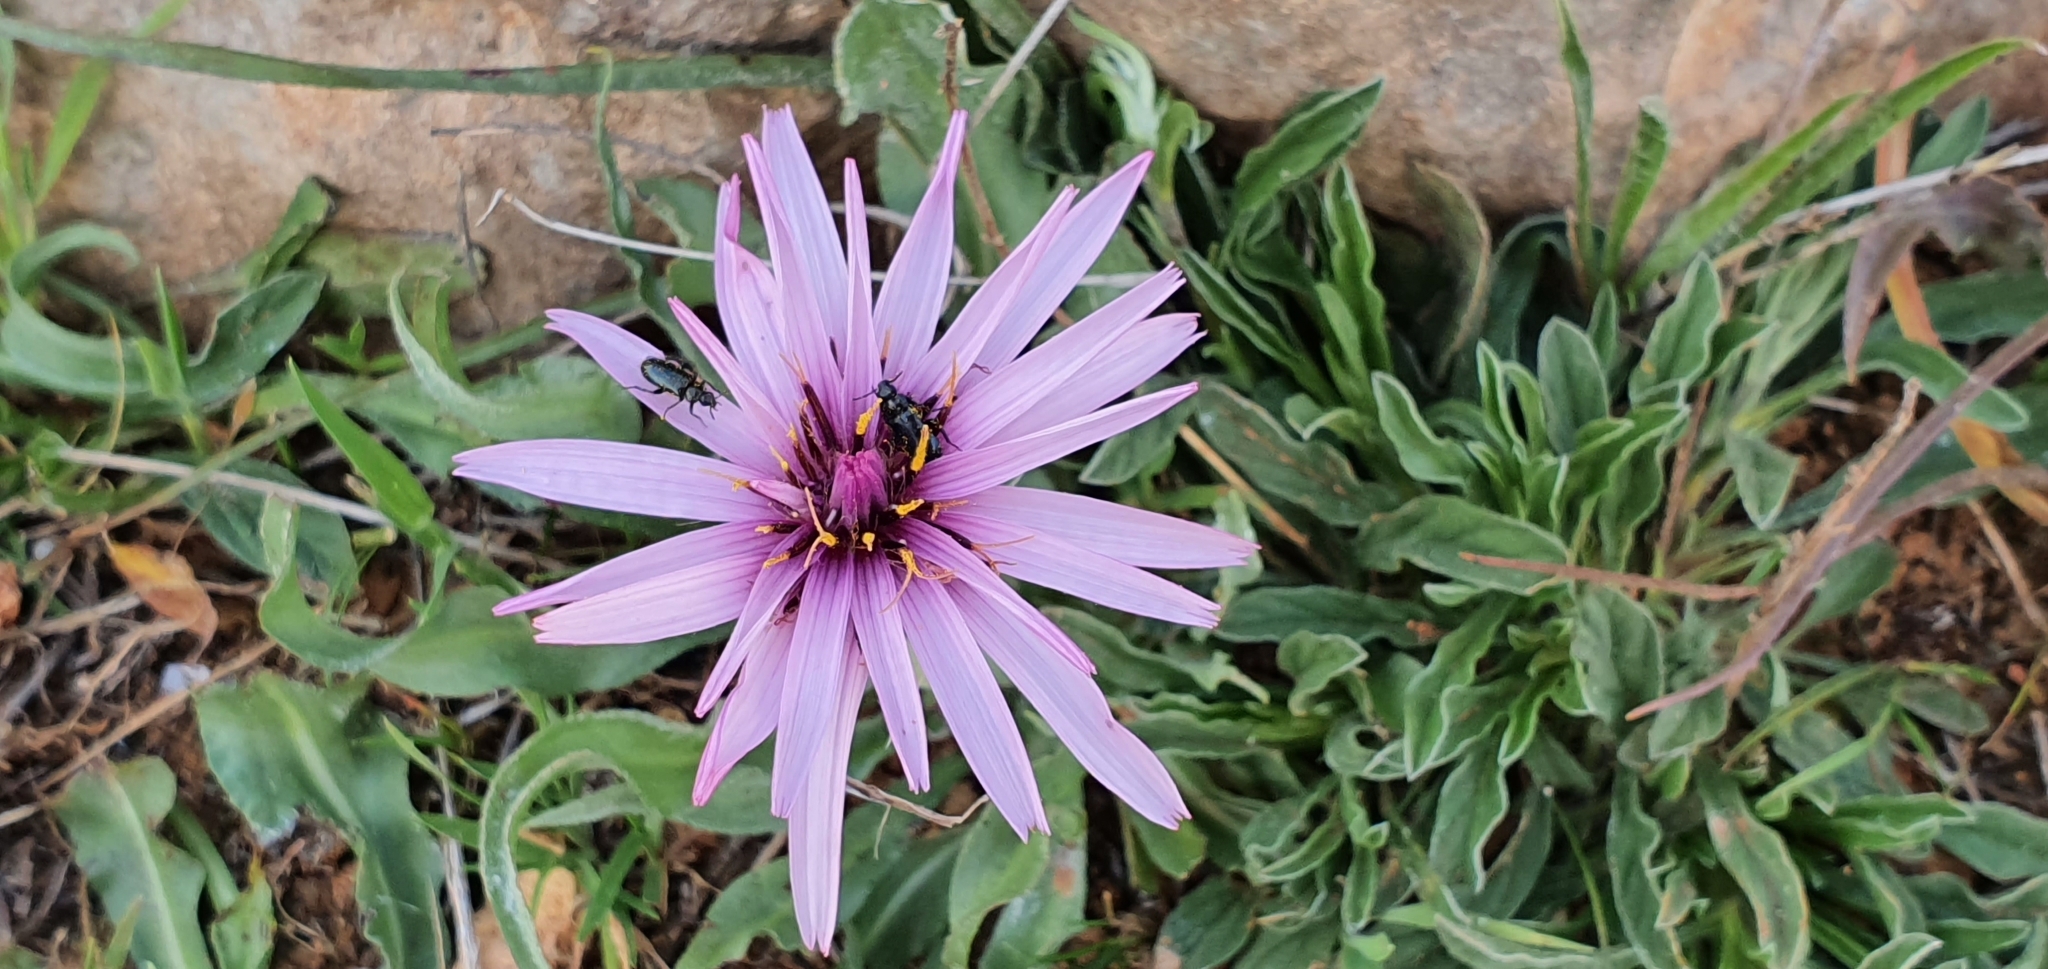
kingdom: Plantae
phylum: Tracheophyta
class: Magnoliopsida
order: Asterales
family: Asteraceae
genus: Pseudopodospermum
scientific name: Pseudopodospermum undulatum
